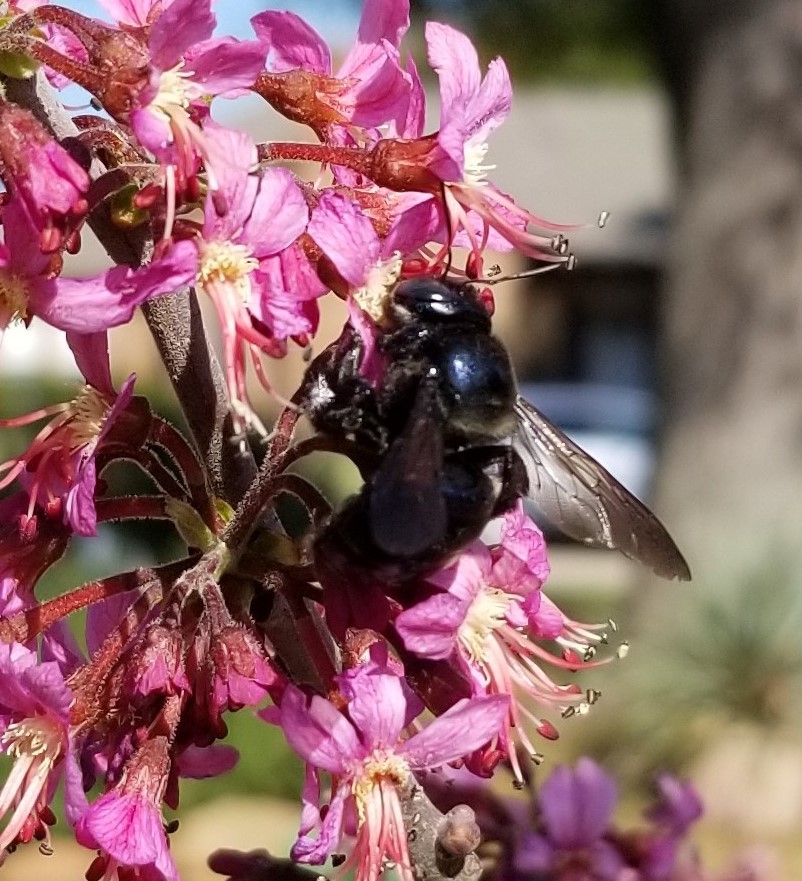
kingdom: Animalia
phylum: Arthropoda
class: Insecta
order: Hymenoptera
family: Apidae
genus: Xylocopa
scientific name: Xylocopa micans
